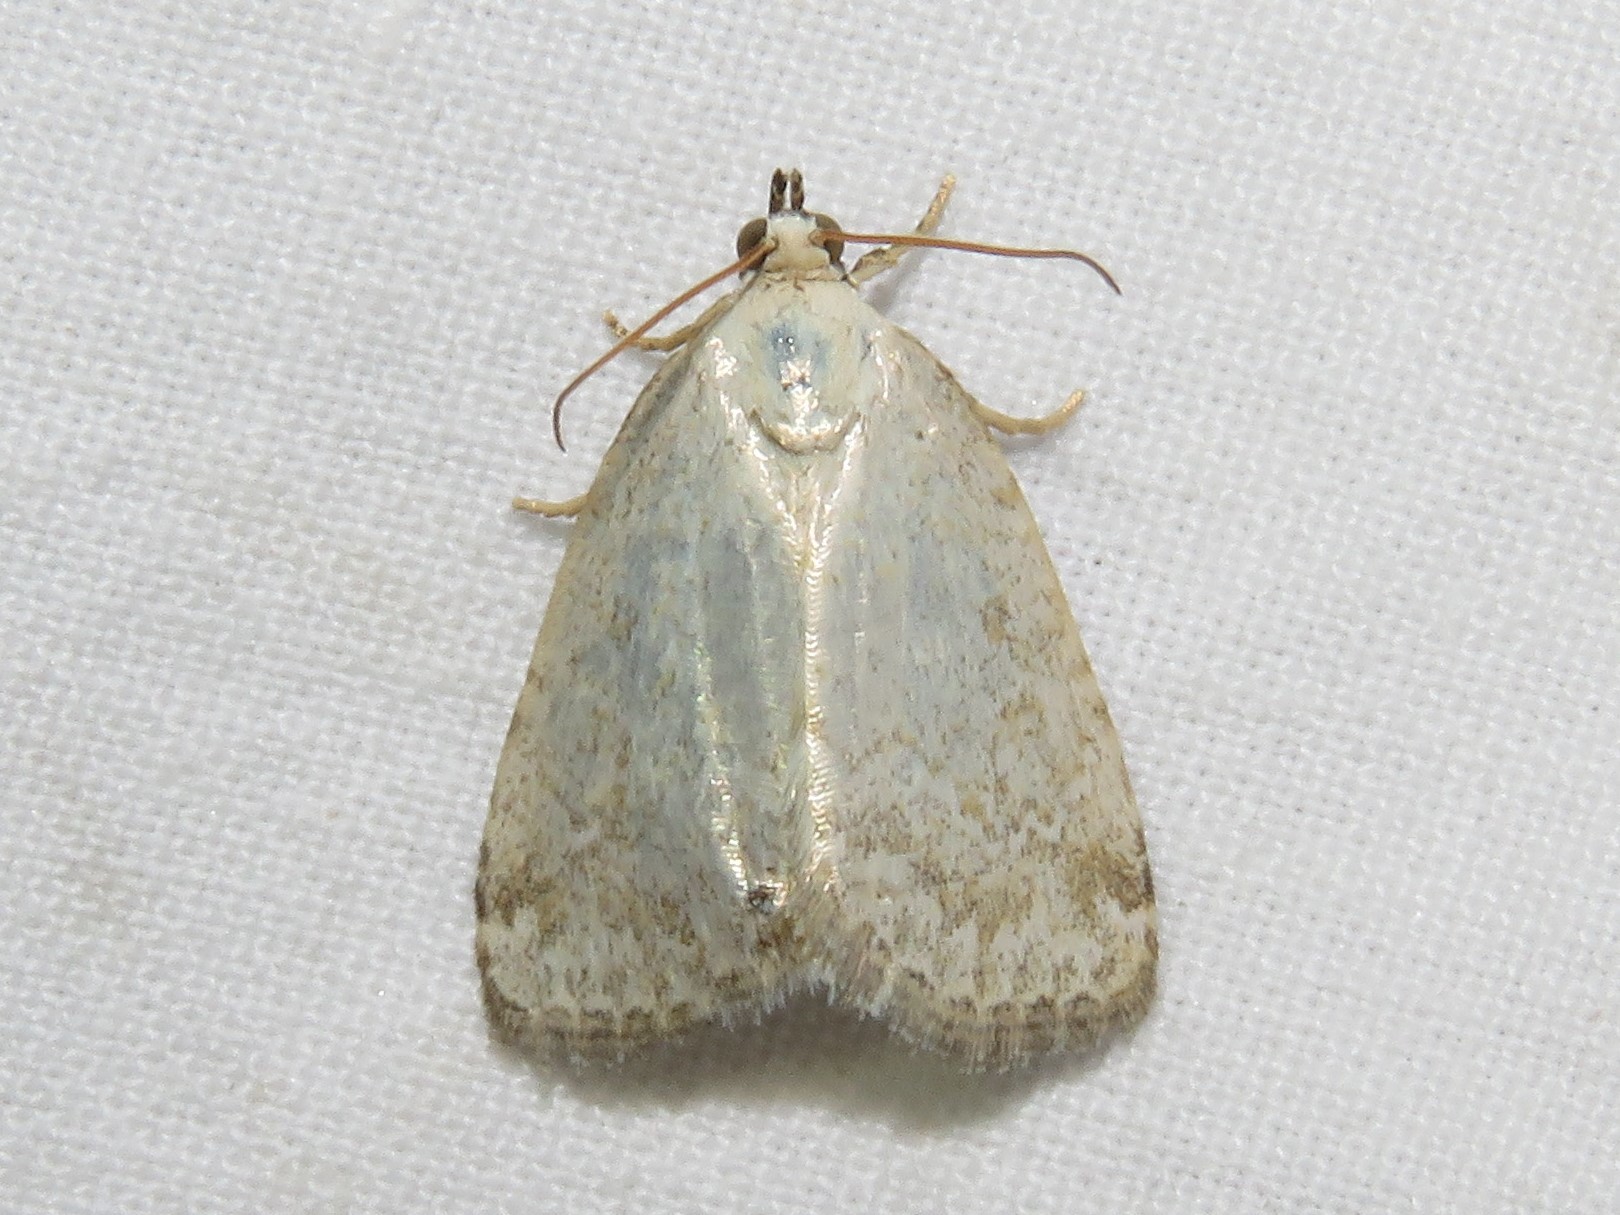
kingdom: Animalia
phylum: Arthropoda
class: Insecta
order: Lepidoptera
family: Noctuidae
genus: Protodeltote
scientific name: Protodeltote albidula
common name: Pale glyph
